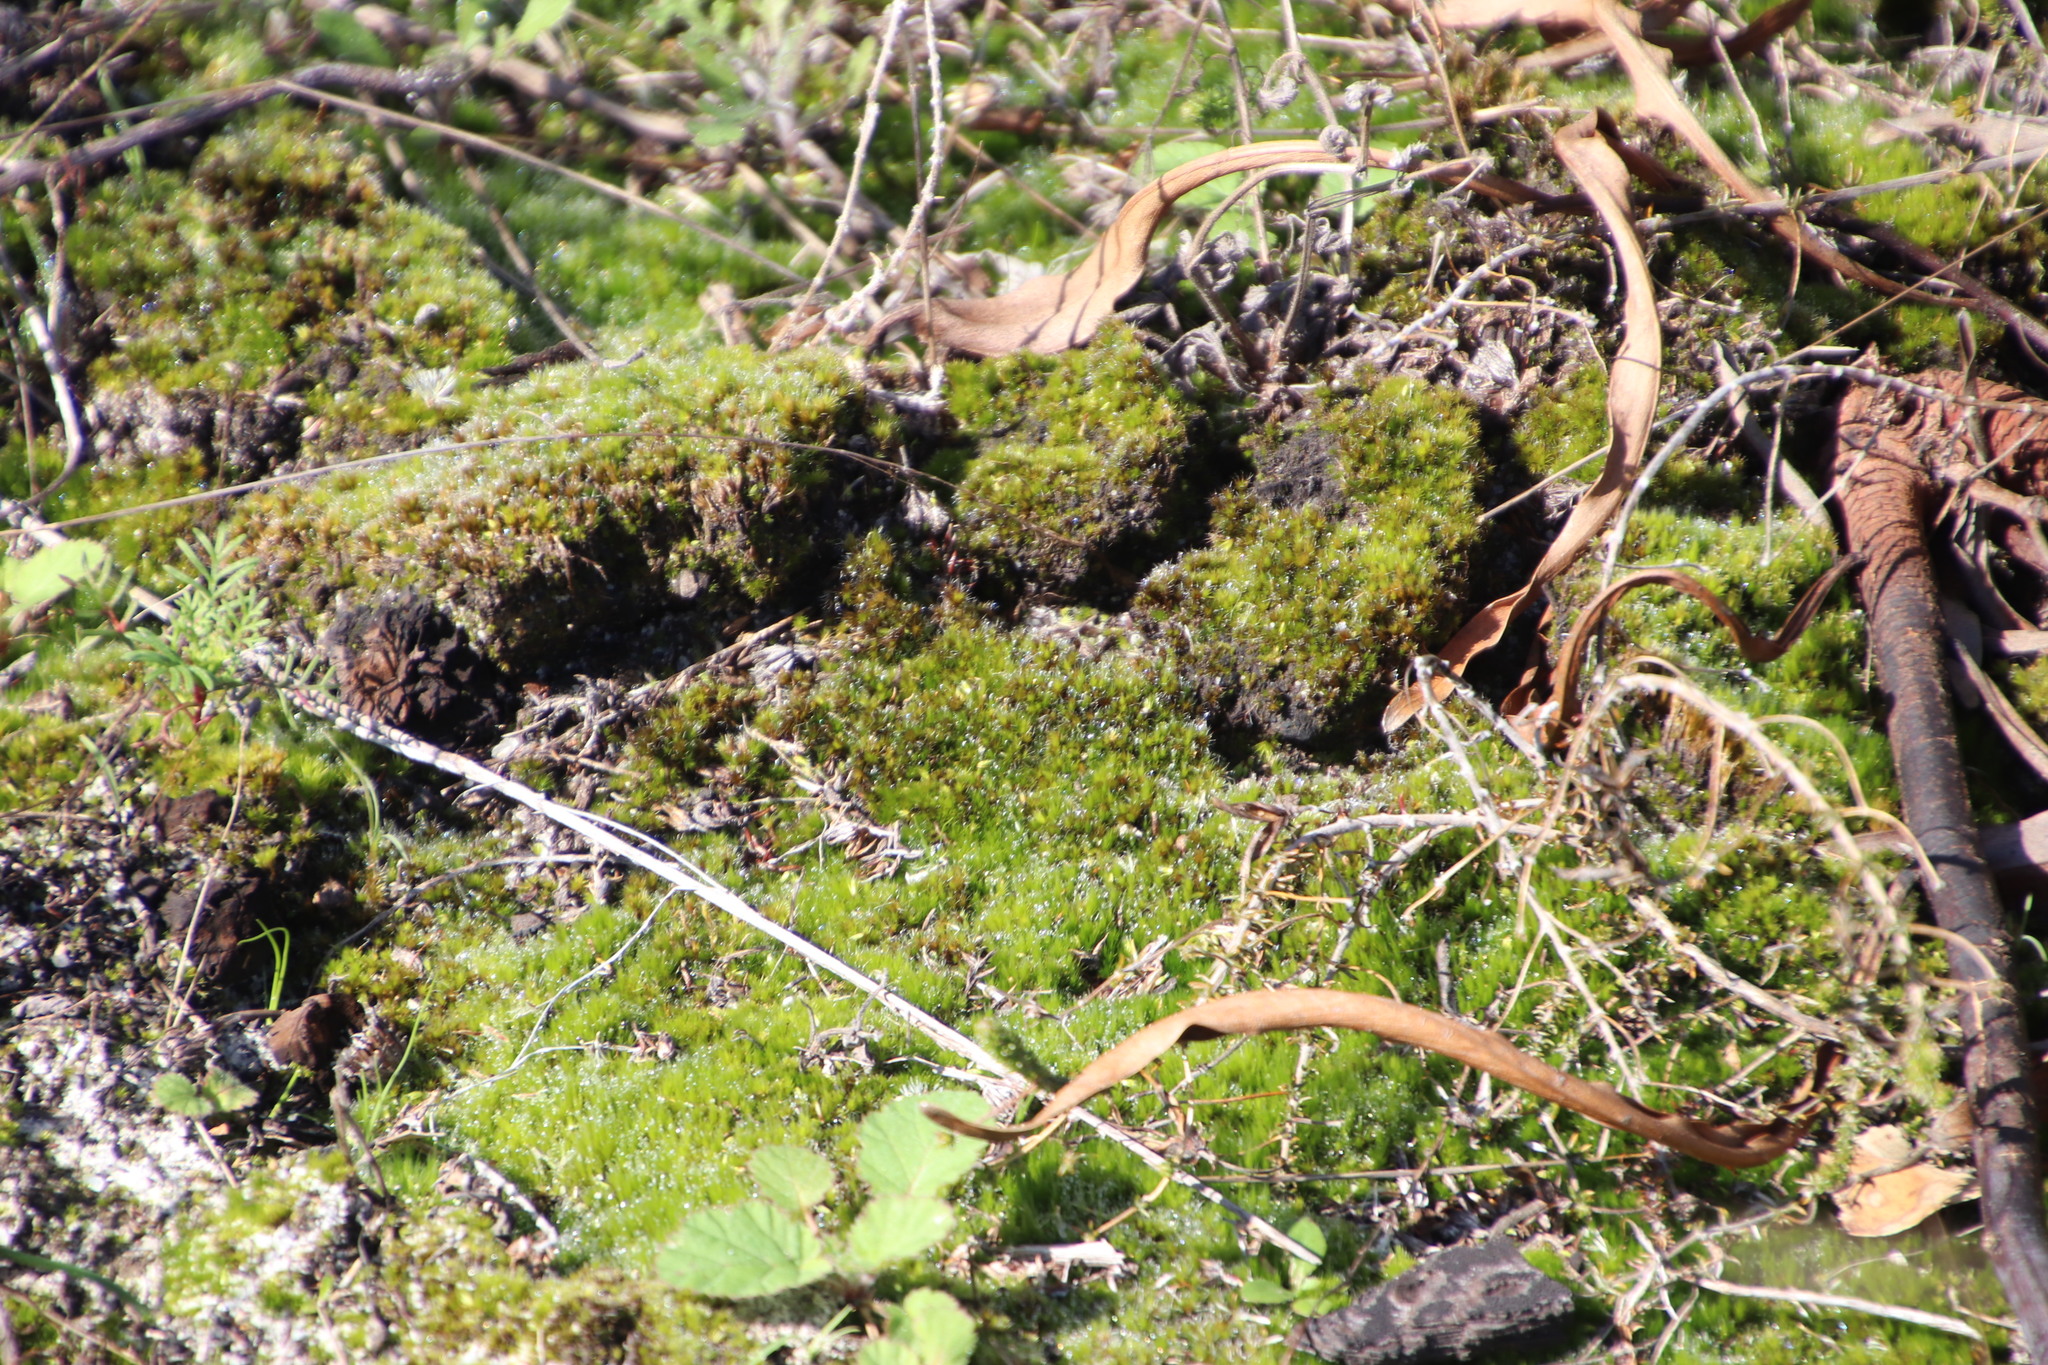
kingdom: Plantae
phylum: Bryophyta
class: Bryopsida
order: Dicranales
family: Leucobryaceae
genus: Campylopus
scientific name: Campylopus introflexus
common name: Heath star moss
